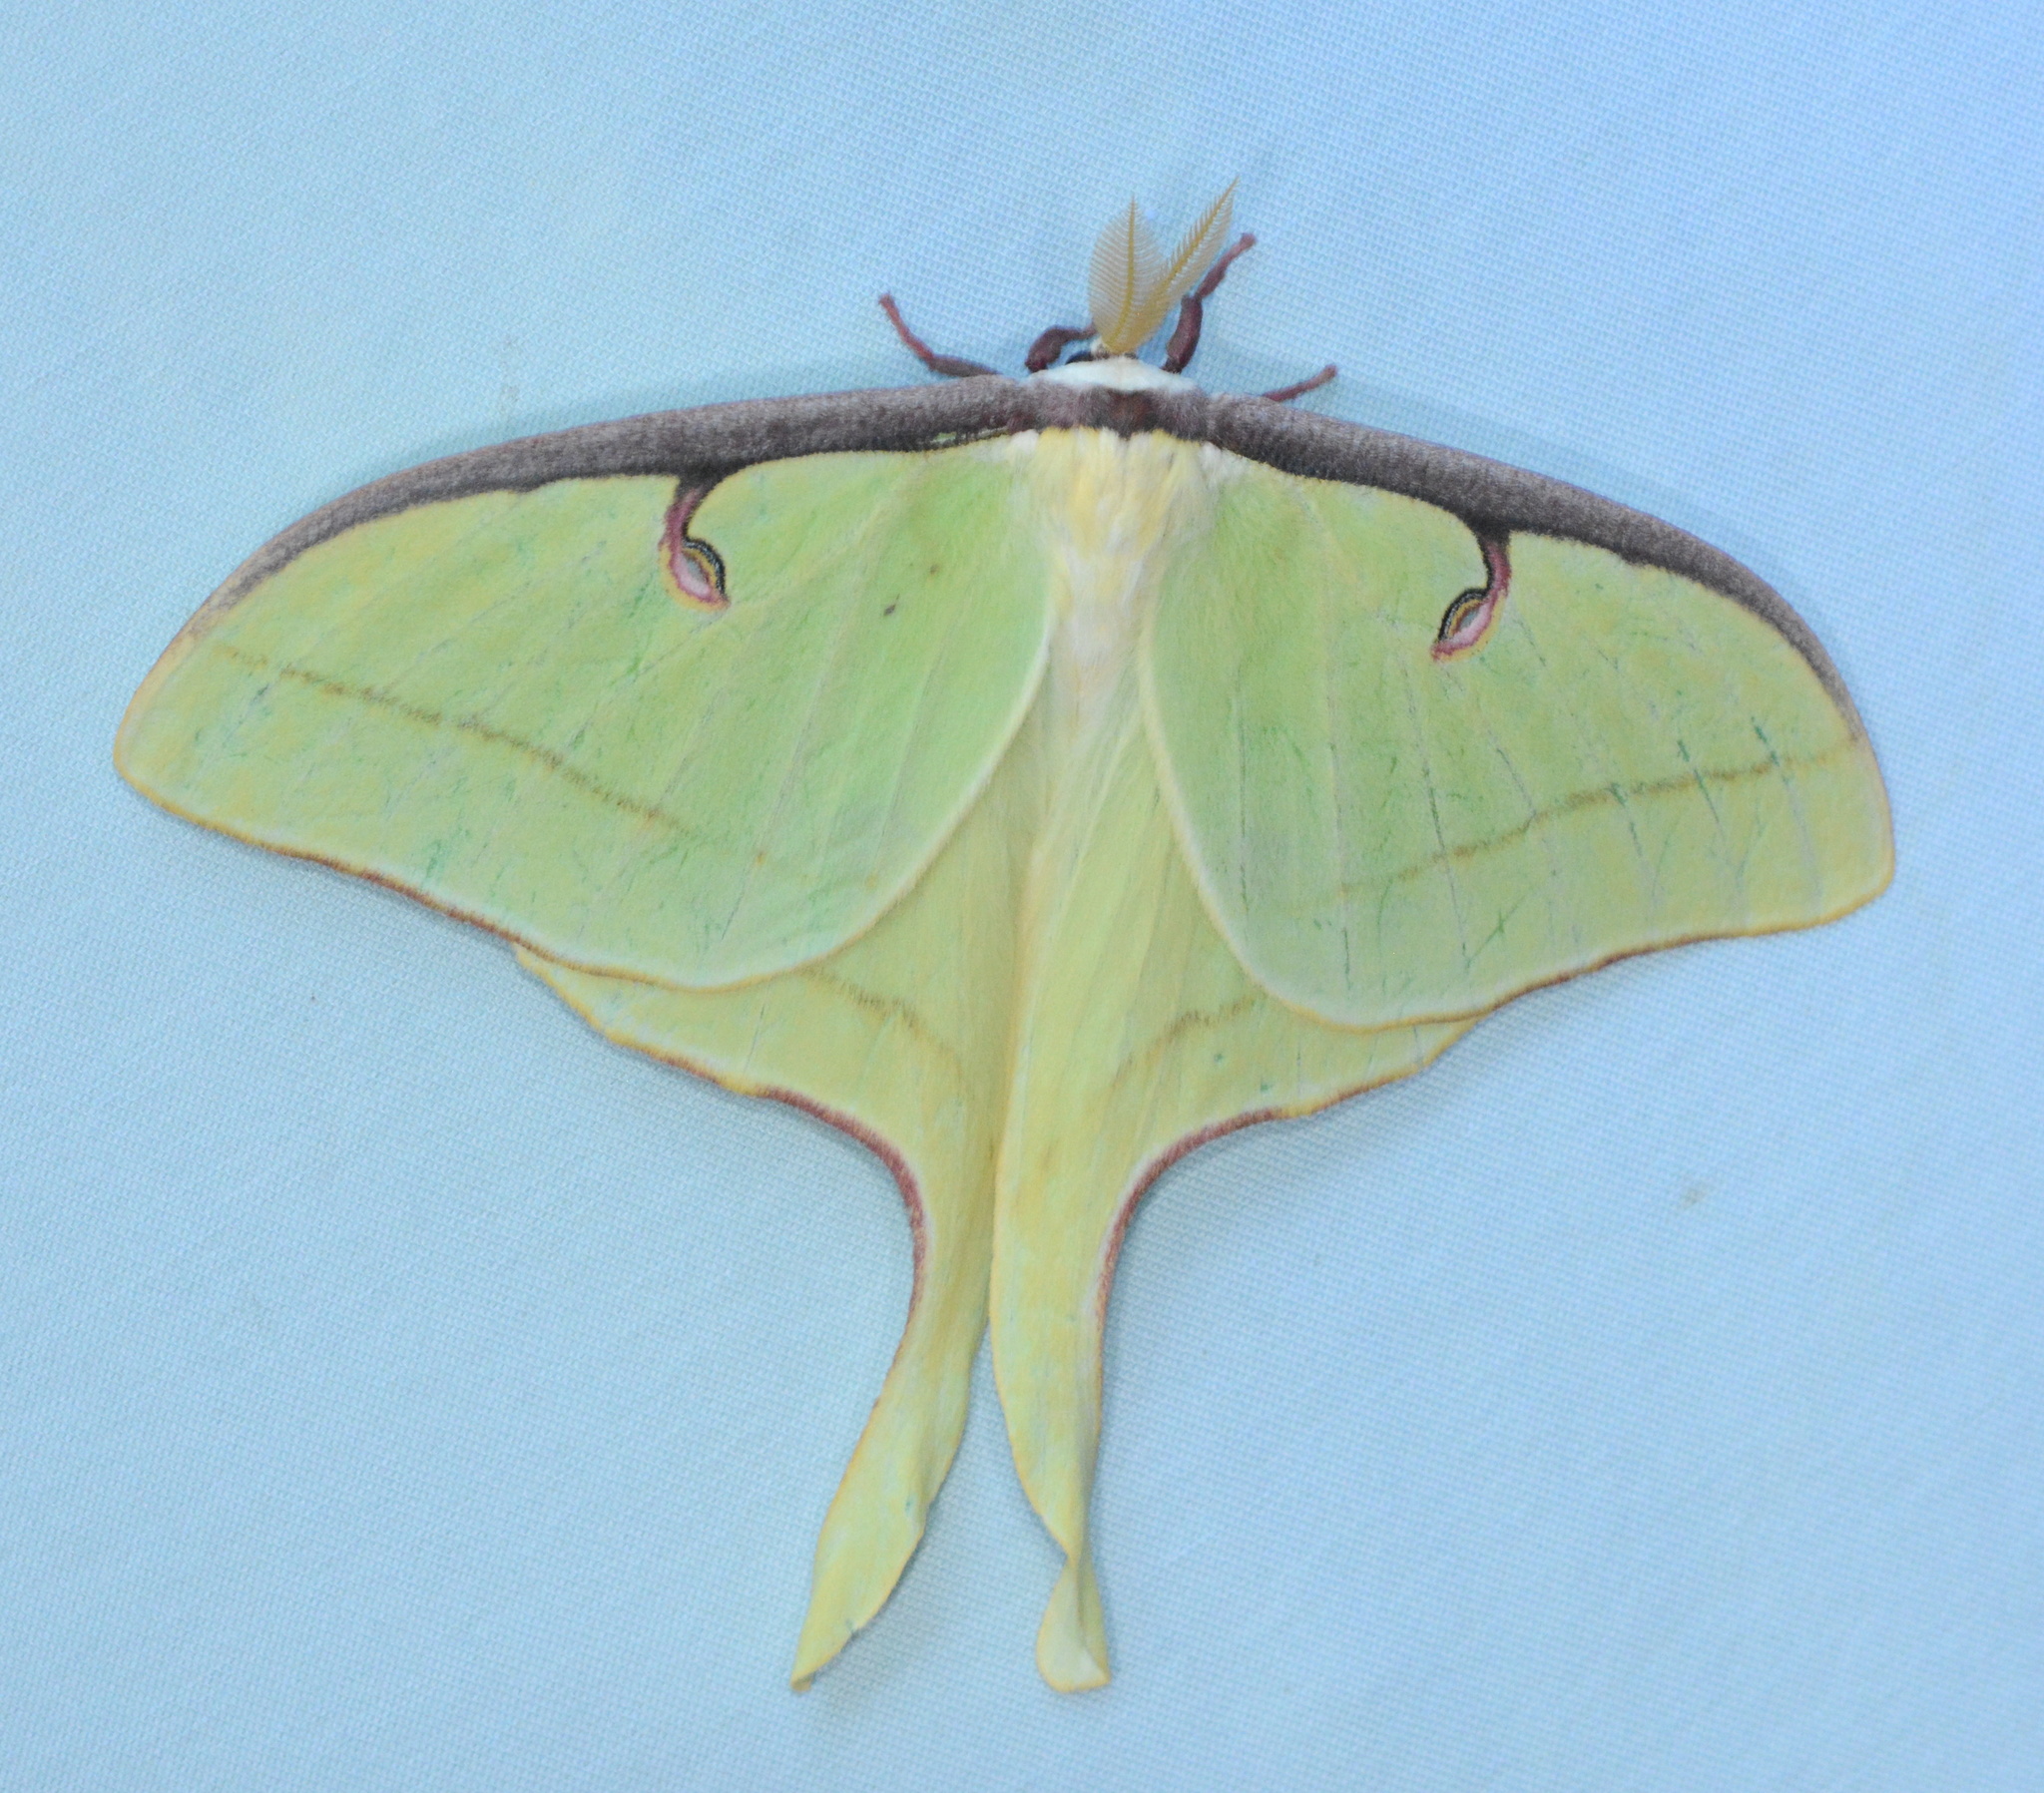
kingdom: Animalia
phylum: Arthropoda
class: Insecta
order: Lepidoptera
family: Saturniidae
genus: Actias
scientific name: Actias luna
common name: Luna moth
